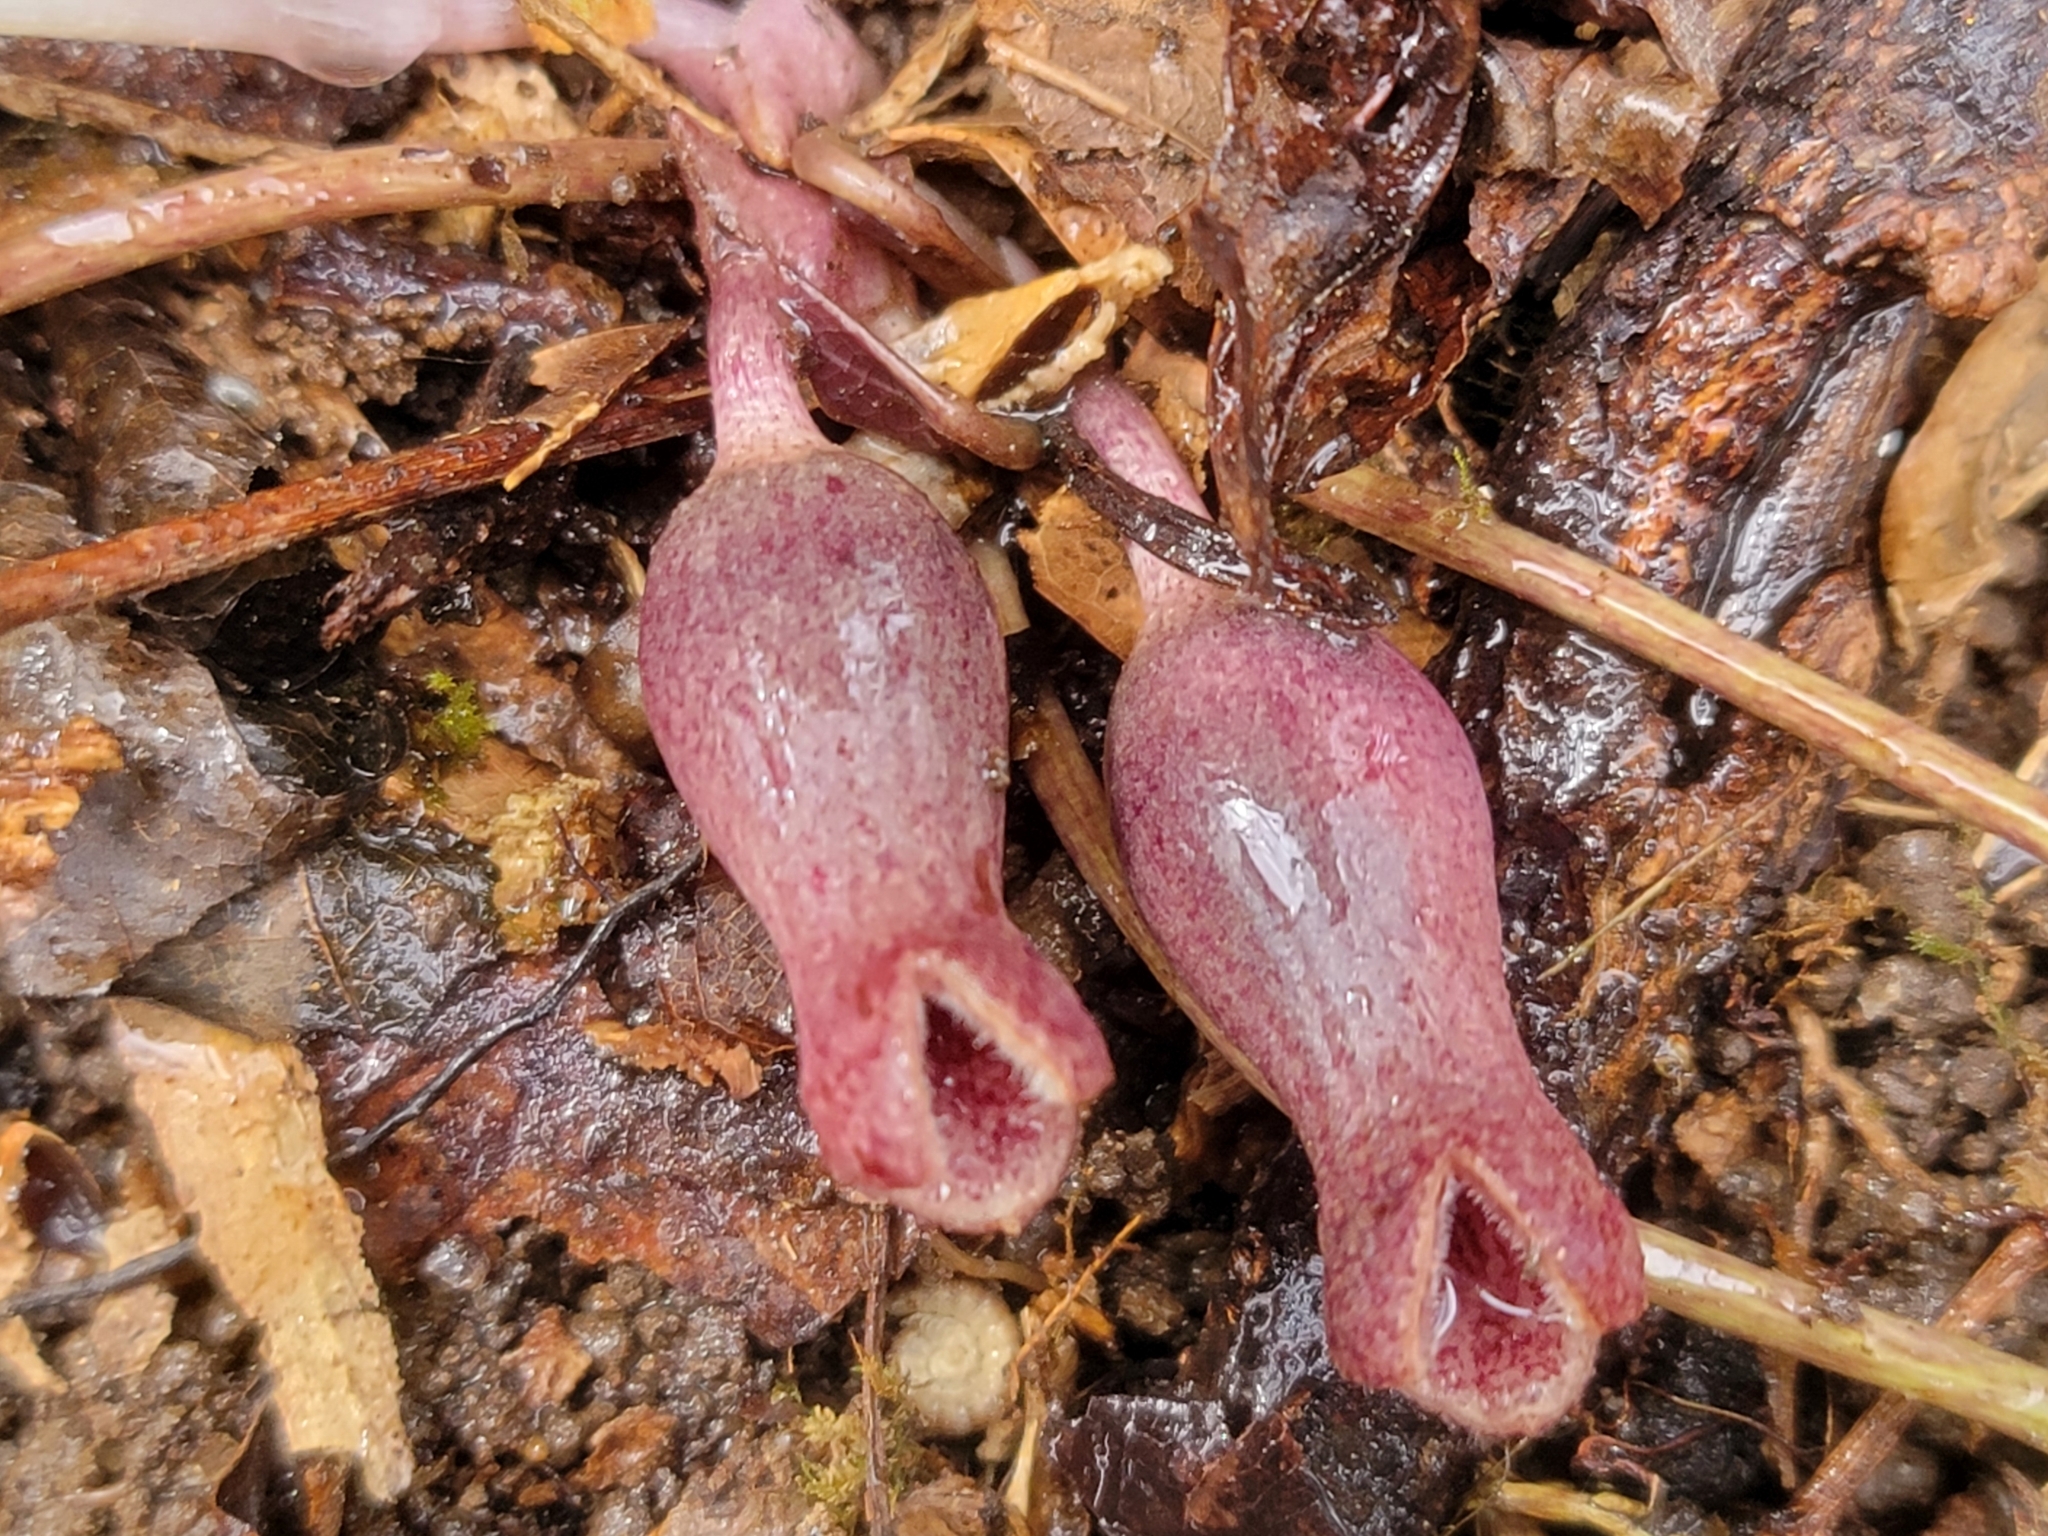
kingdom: Plantae
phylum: Tracheophyta
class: Magnoliopsida
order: Piperales
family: Aristolochiaceae
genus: Hexastylis
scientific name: Hexastylis arifolia
